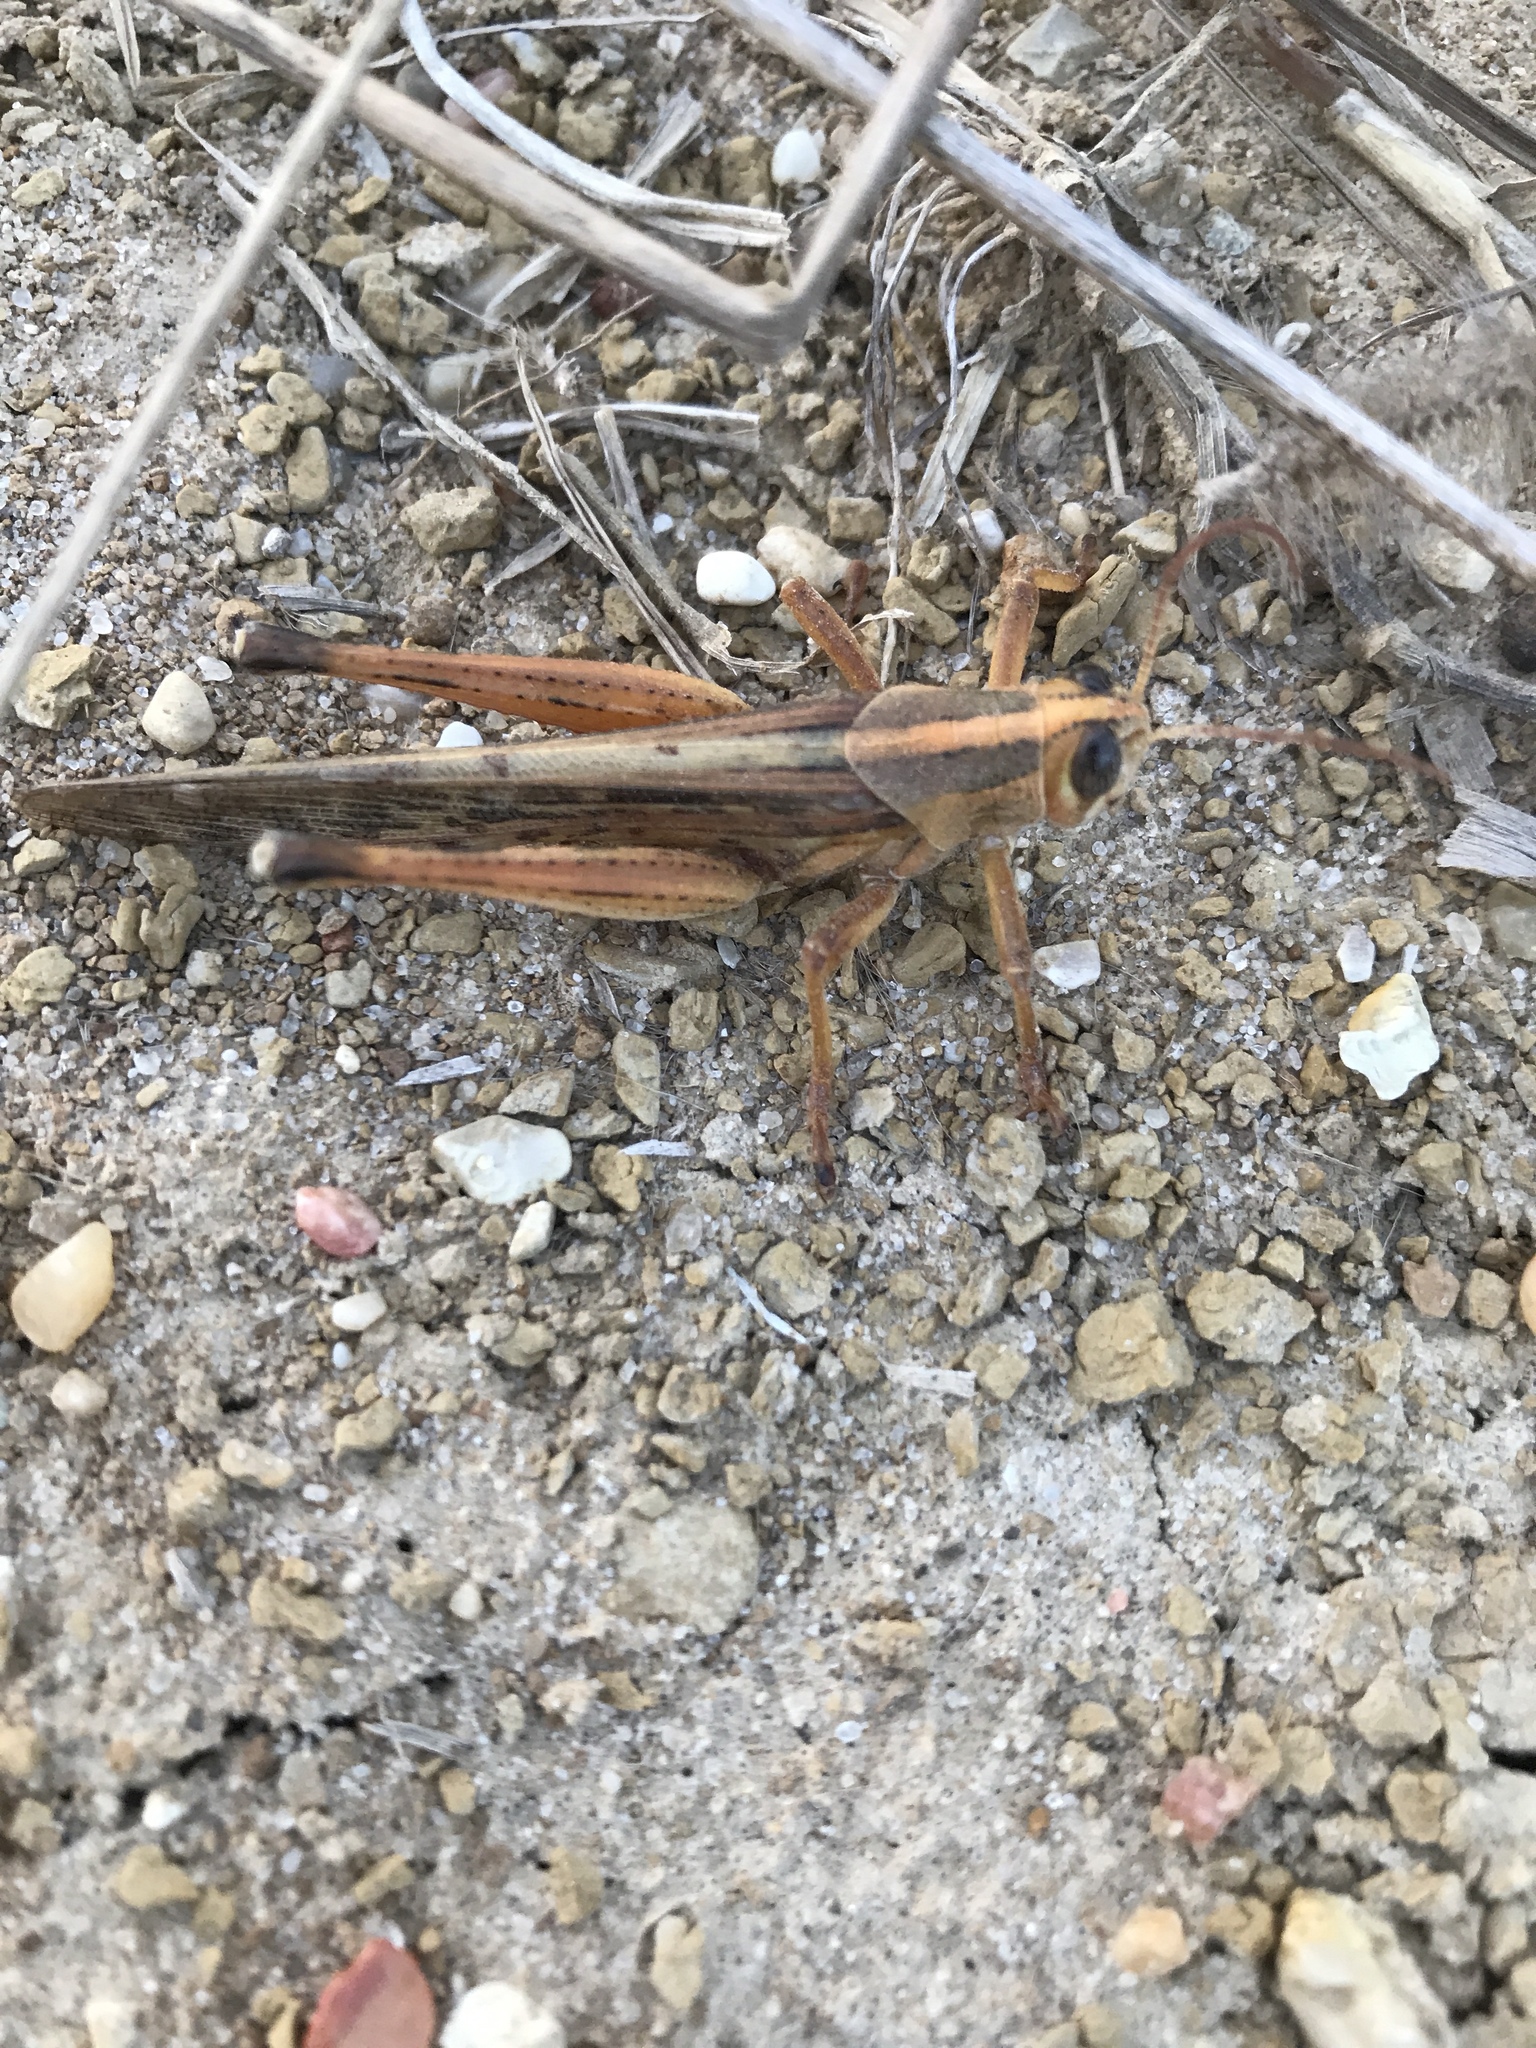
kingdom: Animalia
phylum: Arthropoda
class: Insecta
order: Orthoptera
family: Acrididae
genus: Schistocerca
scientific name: Schistocerca americana
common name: American bird locust
